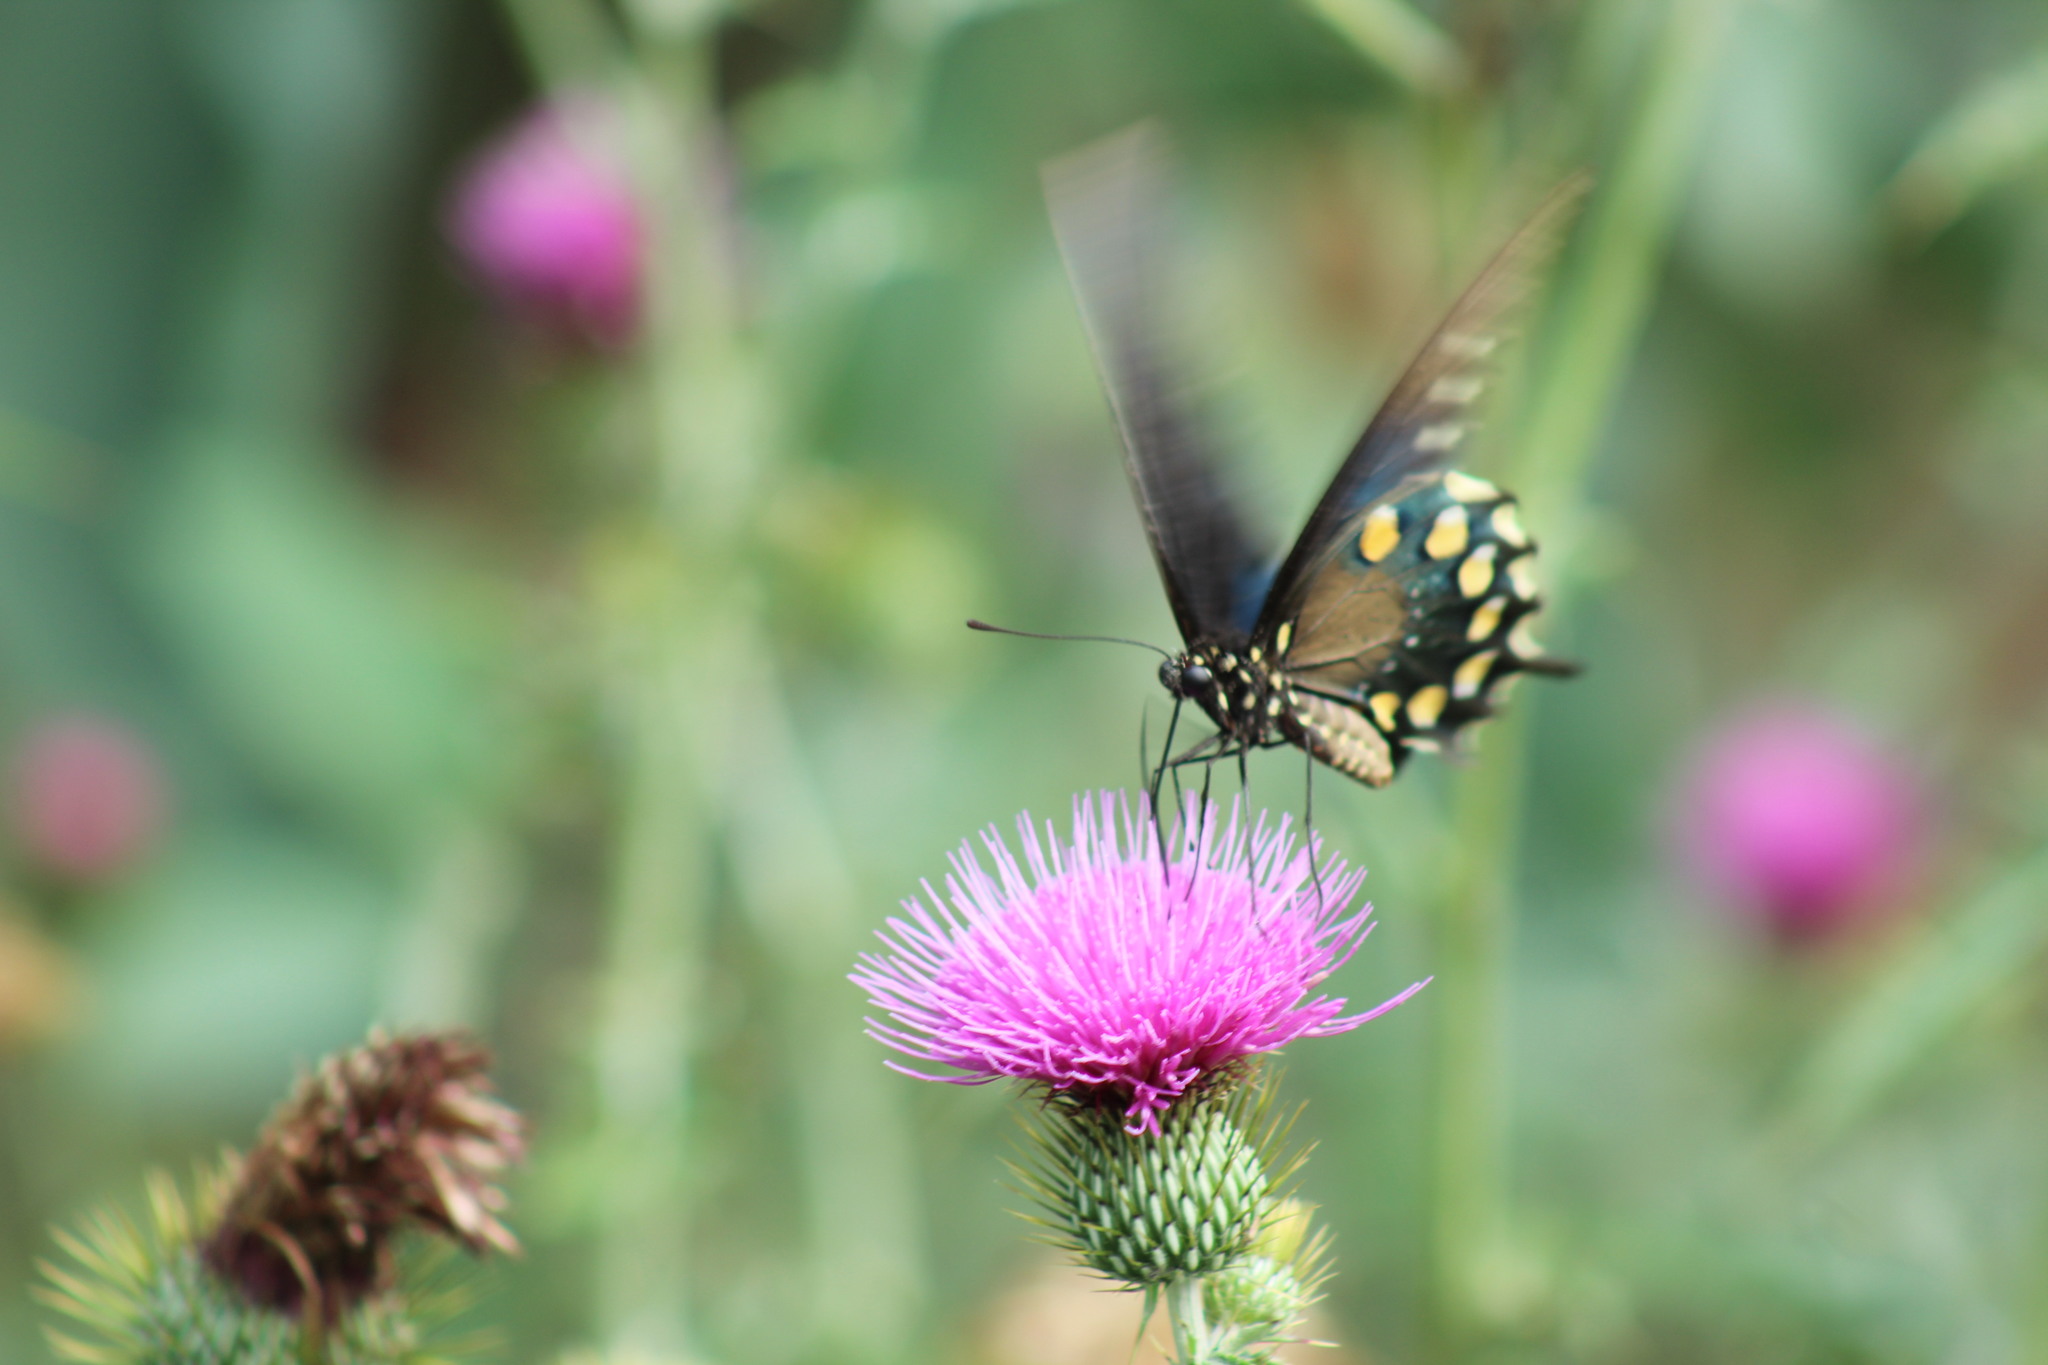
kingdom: Animalia
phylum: Arthropoda
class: Insecta
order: Lepidoptera
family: Papilionidae
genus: Battus
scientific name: Battus philenor
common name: Pipevine swallowtail
